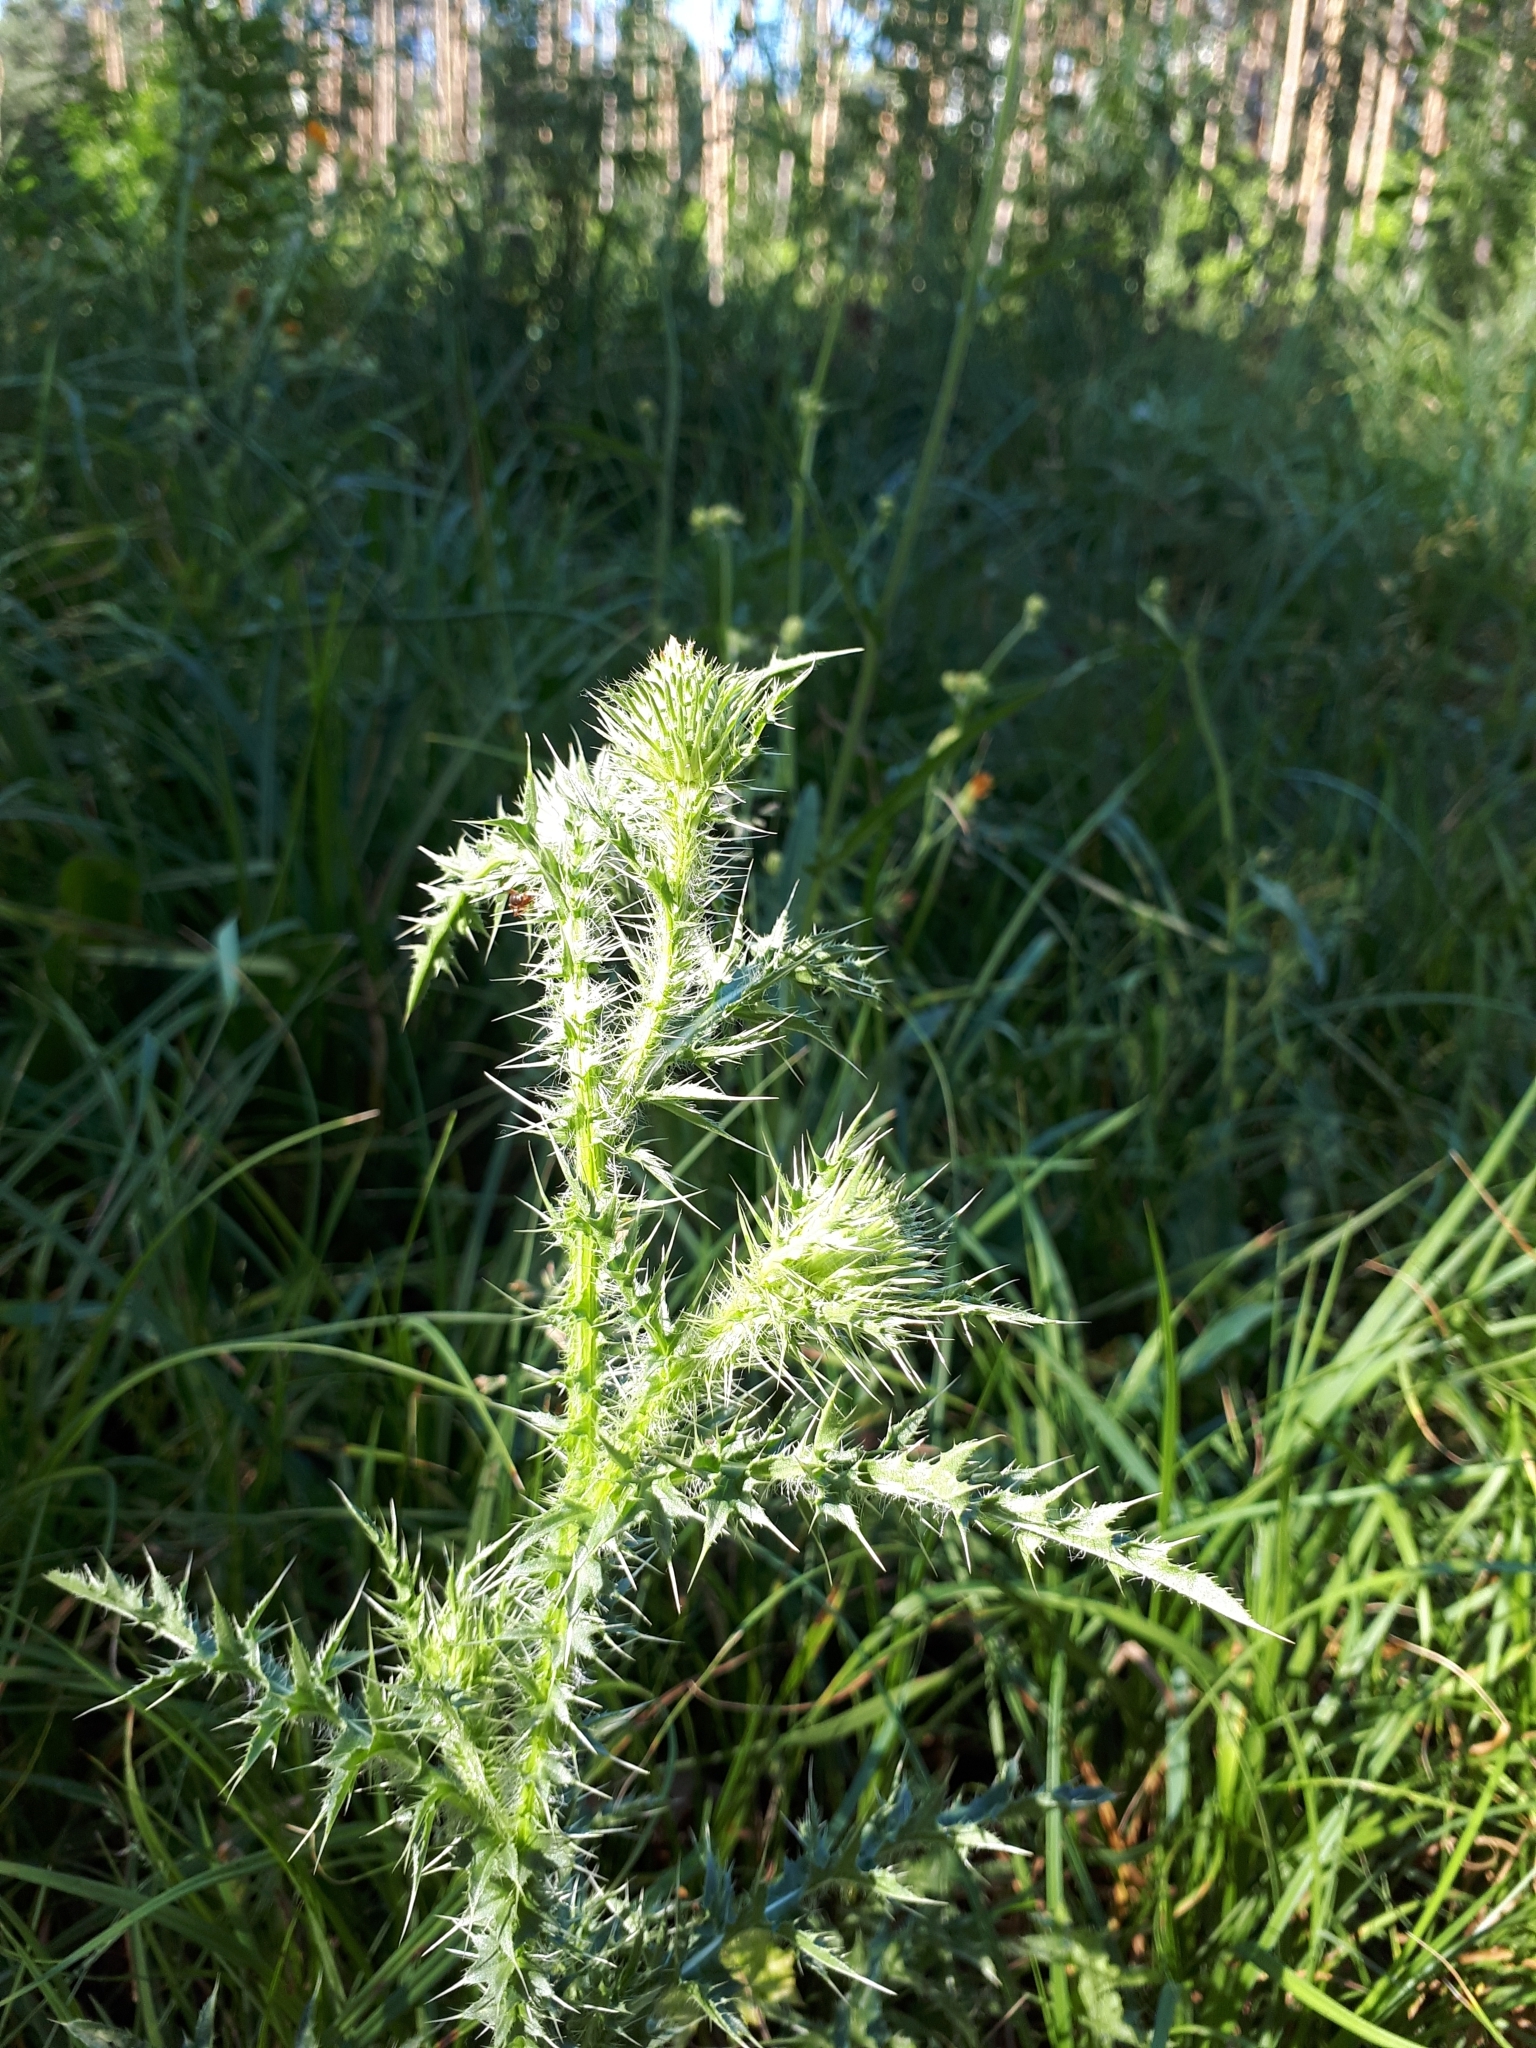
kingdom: Plantae
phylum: Tracheophyta
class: Magnoliopsida
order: Asterales
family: Asteraceae
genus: Carduus
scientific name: Carduus acanthoides
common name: Plumeless thistle
